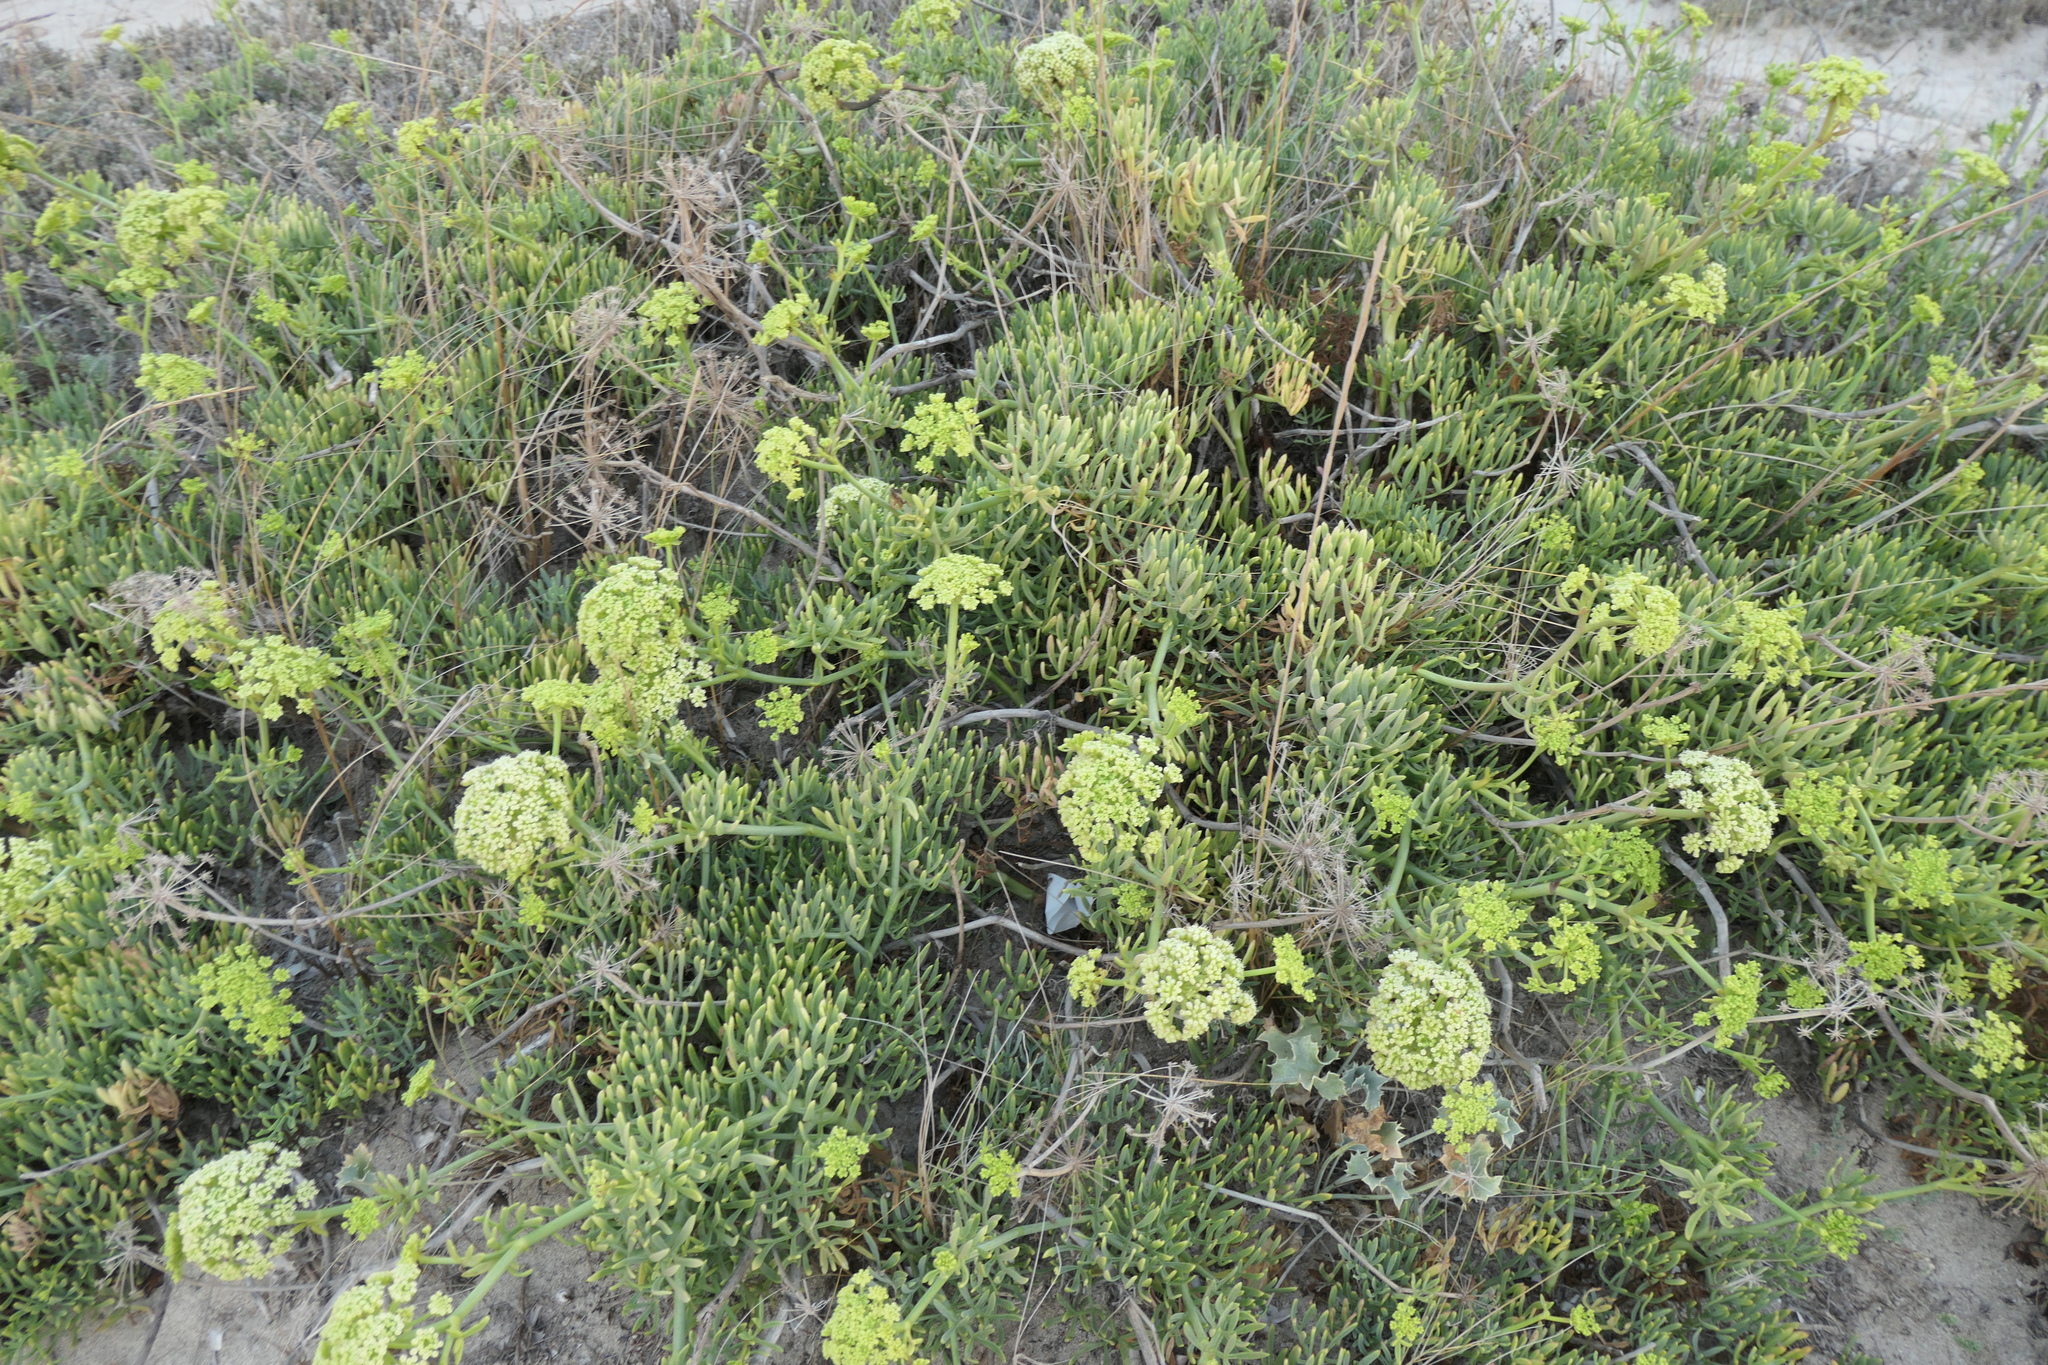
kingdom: Plantae
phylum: Tracheophyta
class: Magnoliopsida
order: Apiales
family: Apiaceae
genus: Crithmum
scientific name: Crithmum maritimum
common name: Rock samphire
